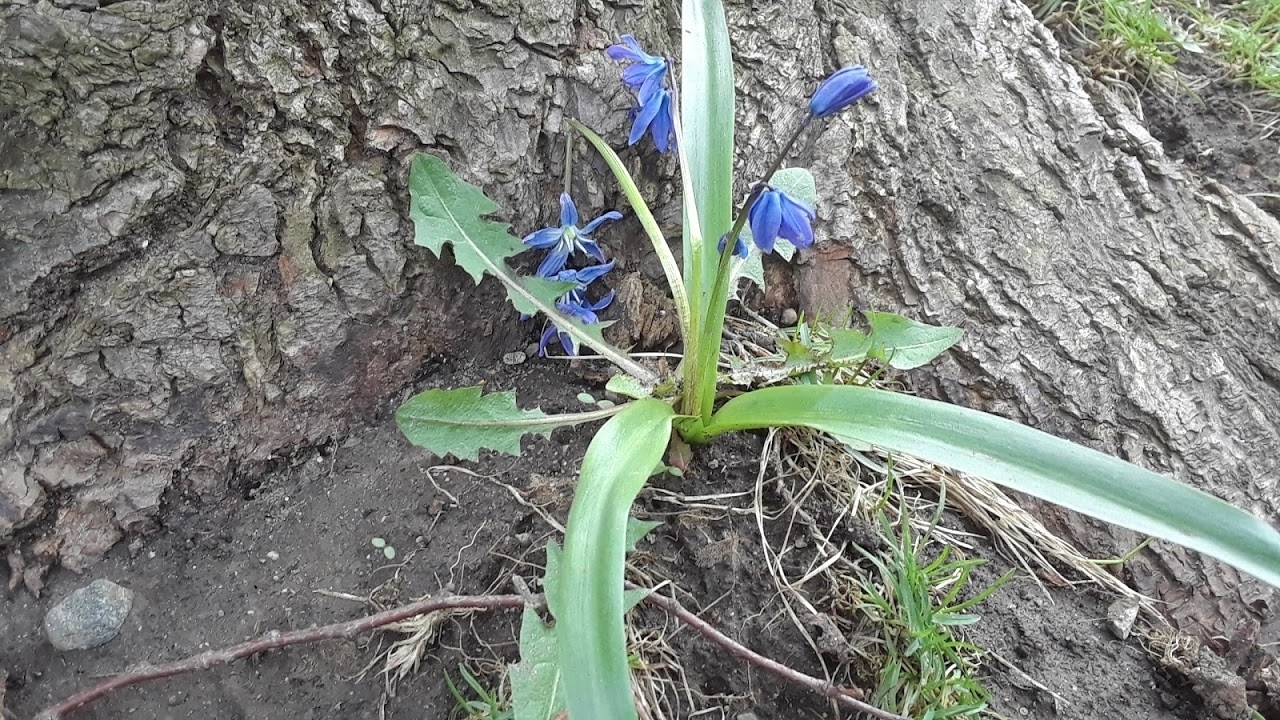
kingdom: Plantae
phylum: Tracheophyta
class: Liliopsida
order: Asparagales
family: Asparagaceae
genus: Scilla
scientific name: Scilla siberica
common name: Siberian squill
